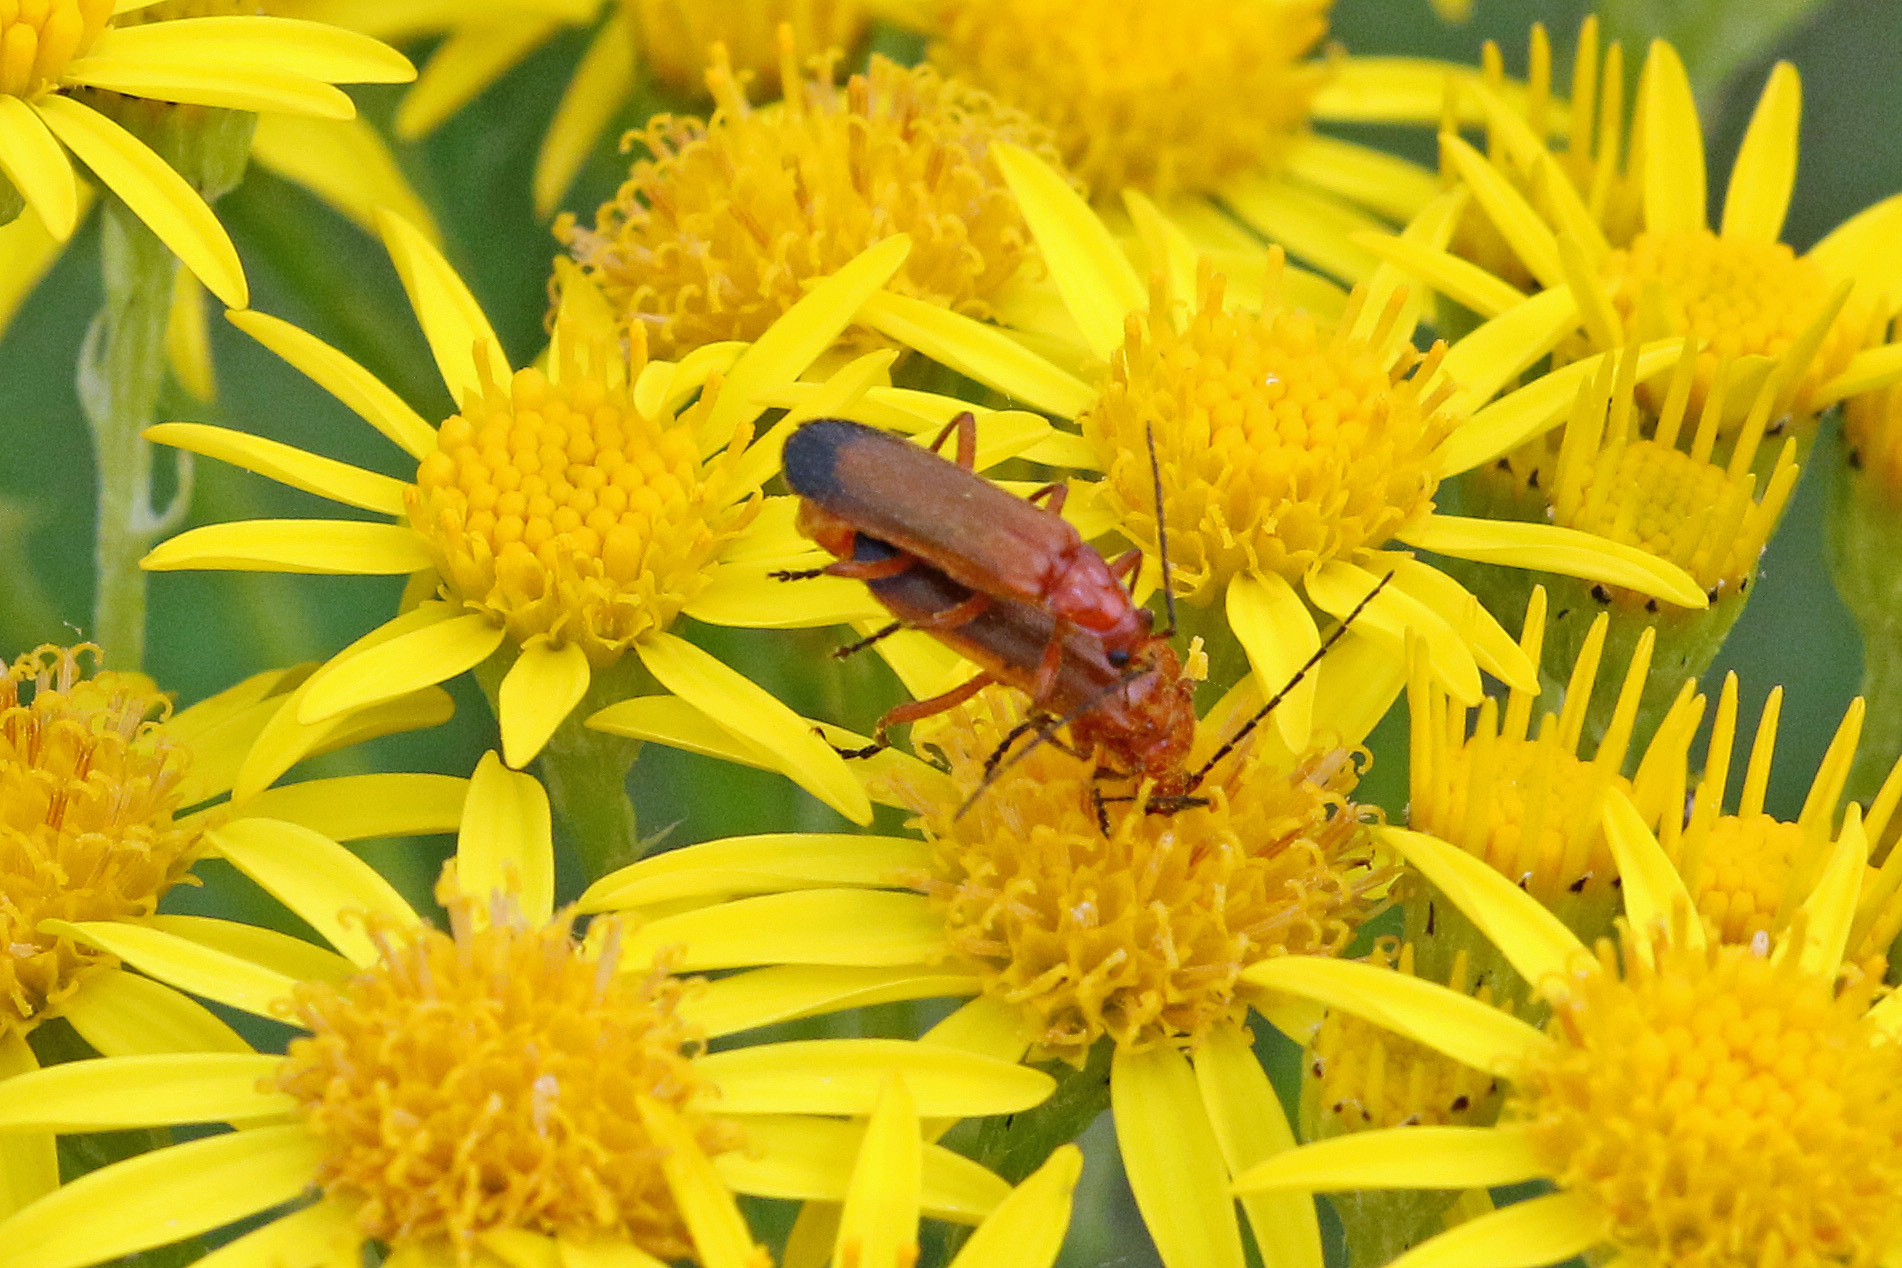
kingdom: Animalia
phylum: Arthropoda
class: Insecta
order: Coleoptera
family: Cantharidae
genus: Rhagonycha
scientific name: Rhagonycha fulva
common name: Common red soldier beetle
